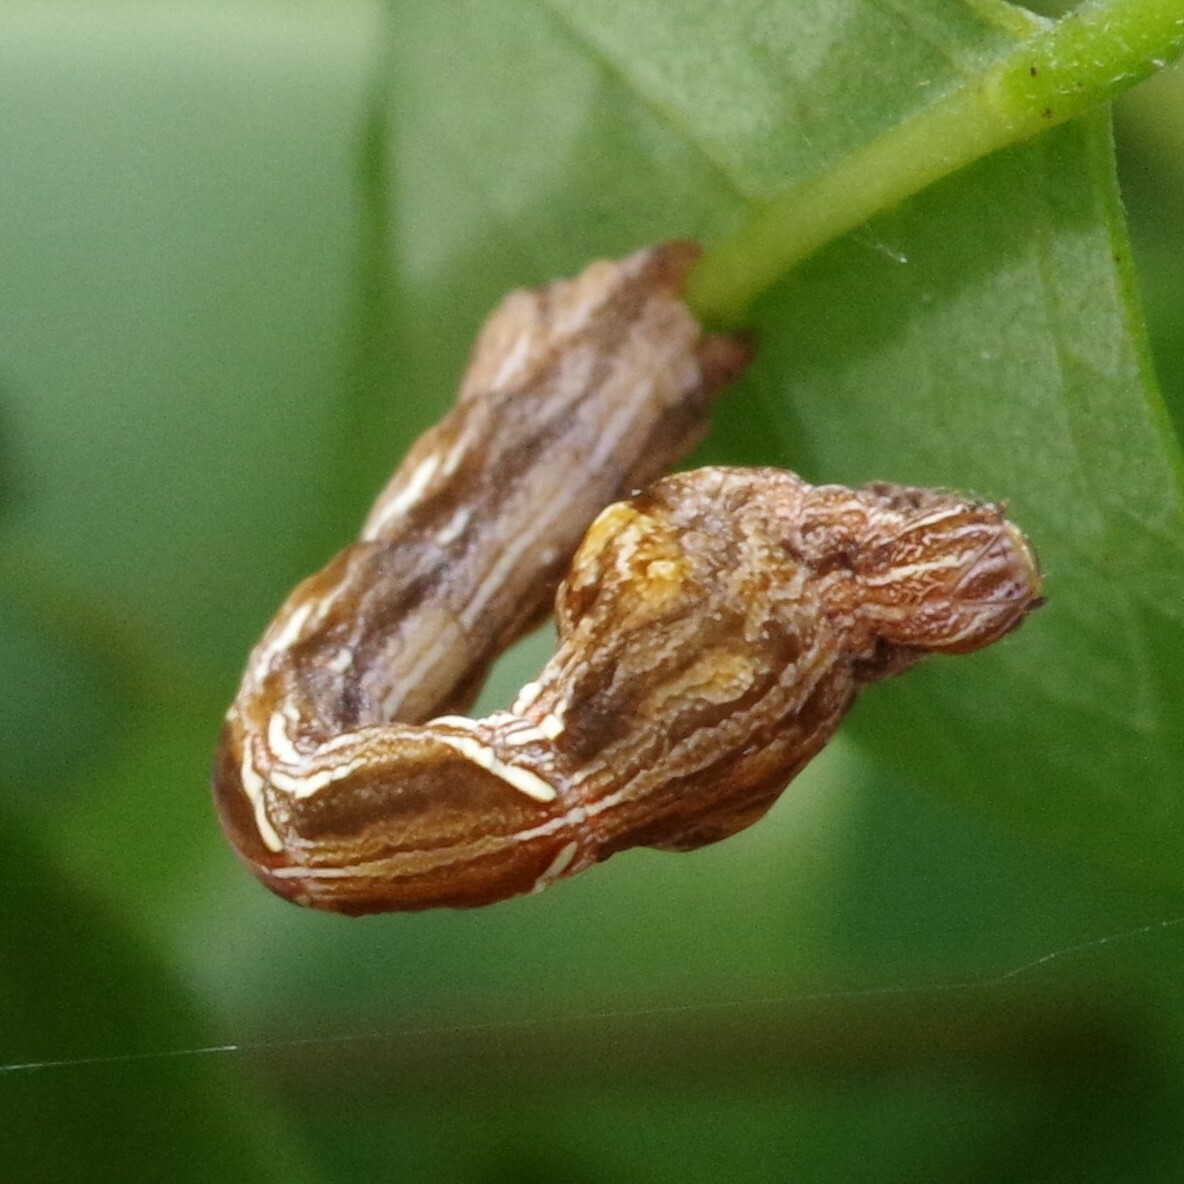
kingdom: Animalia
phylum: Arthropoda
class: Insecta
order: Lepidoptera
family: Geometridae
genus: Timandra
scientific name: Timandra amaturaria
